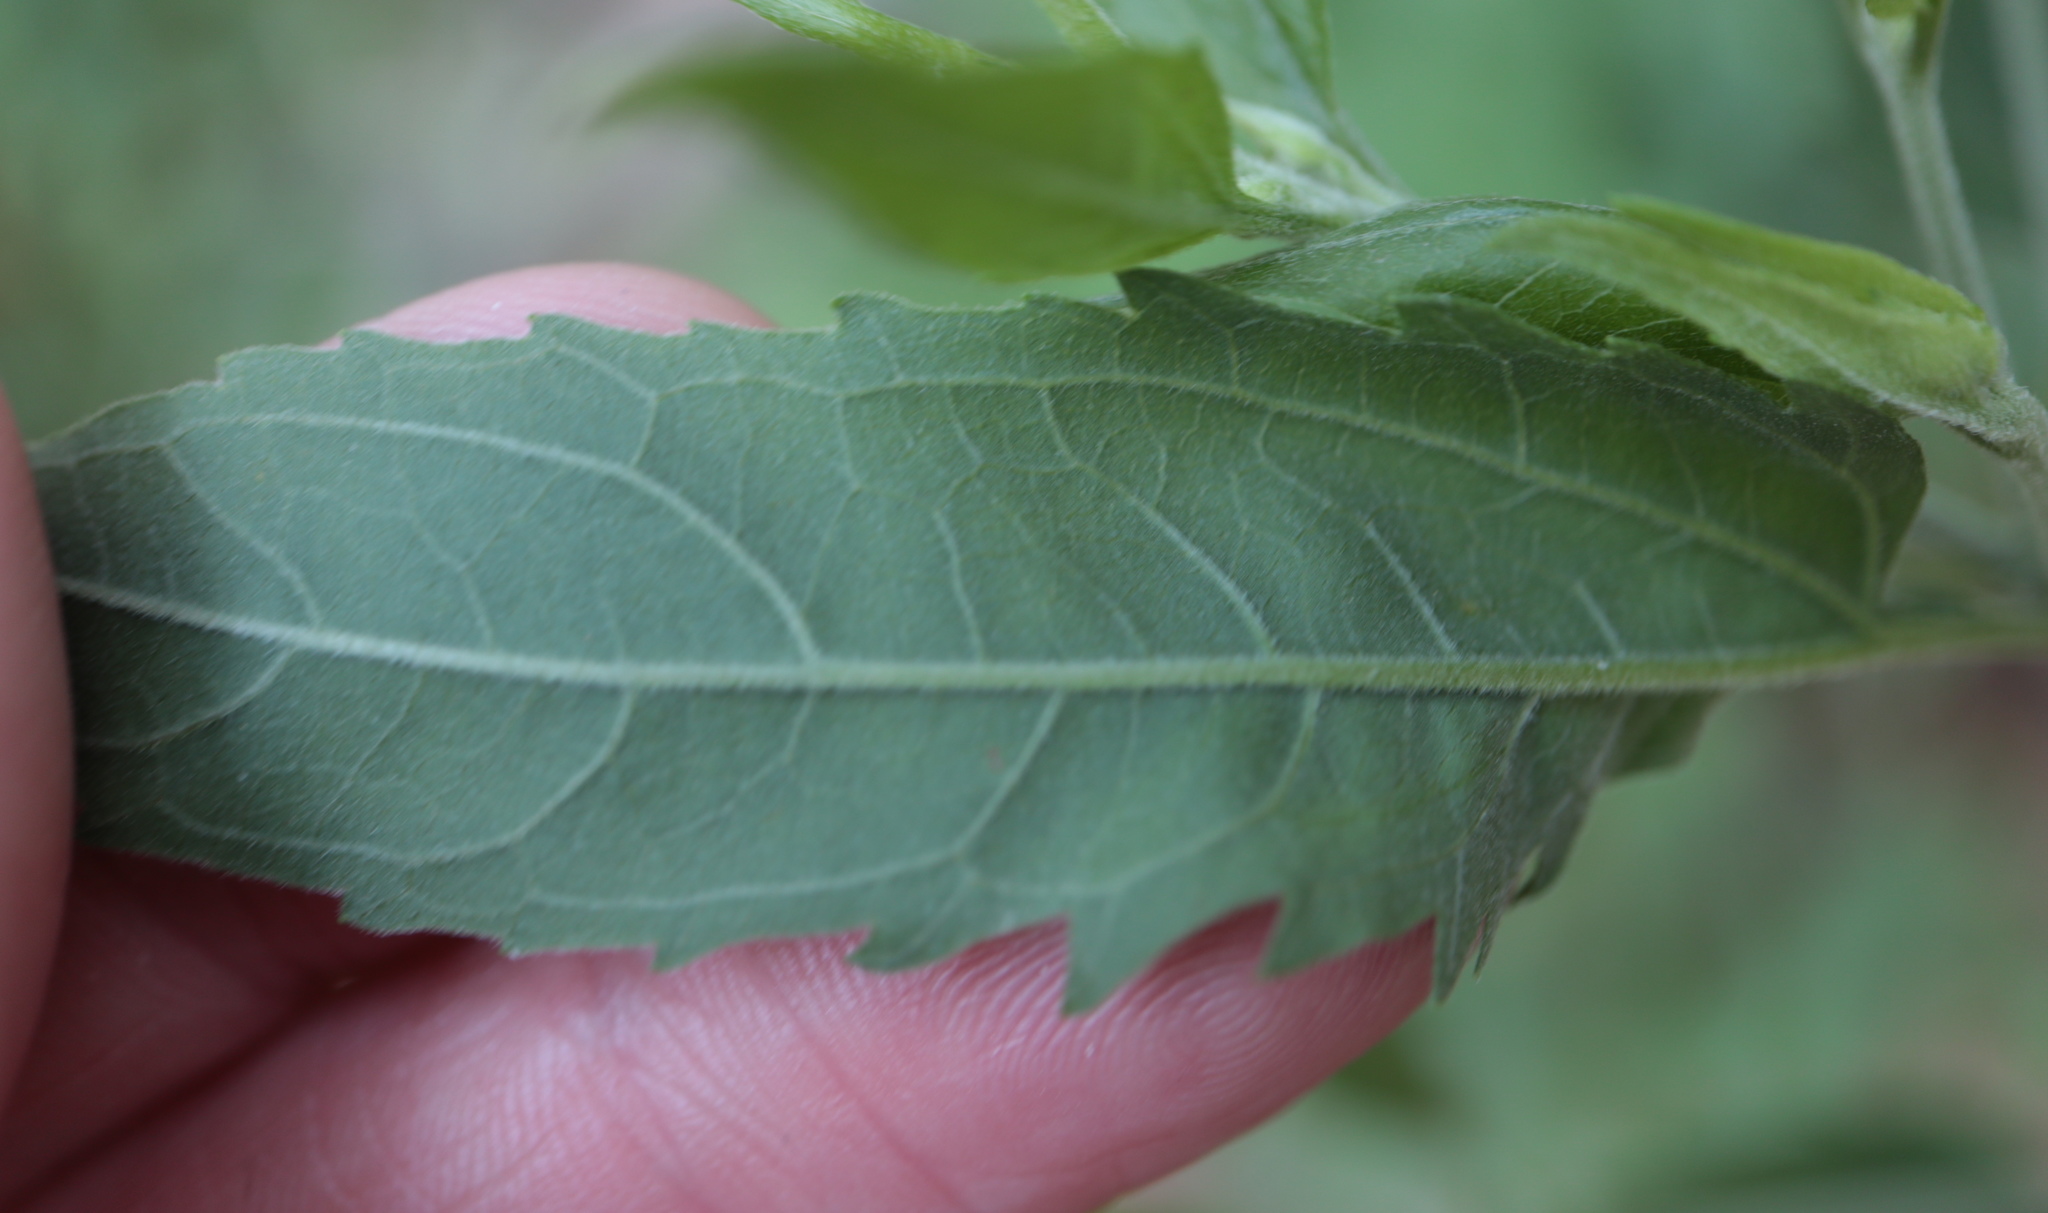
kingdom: Plantae
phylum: Tracheophyta
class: Magnoliopsida
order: Asterales
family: Asteraceae
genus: Eupatorium
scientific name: Eupatorium serotinum
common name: Late boneset
